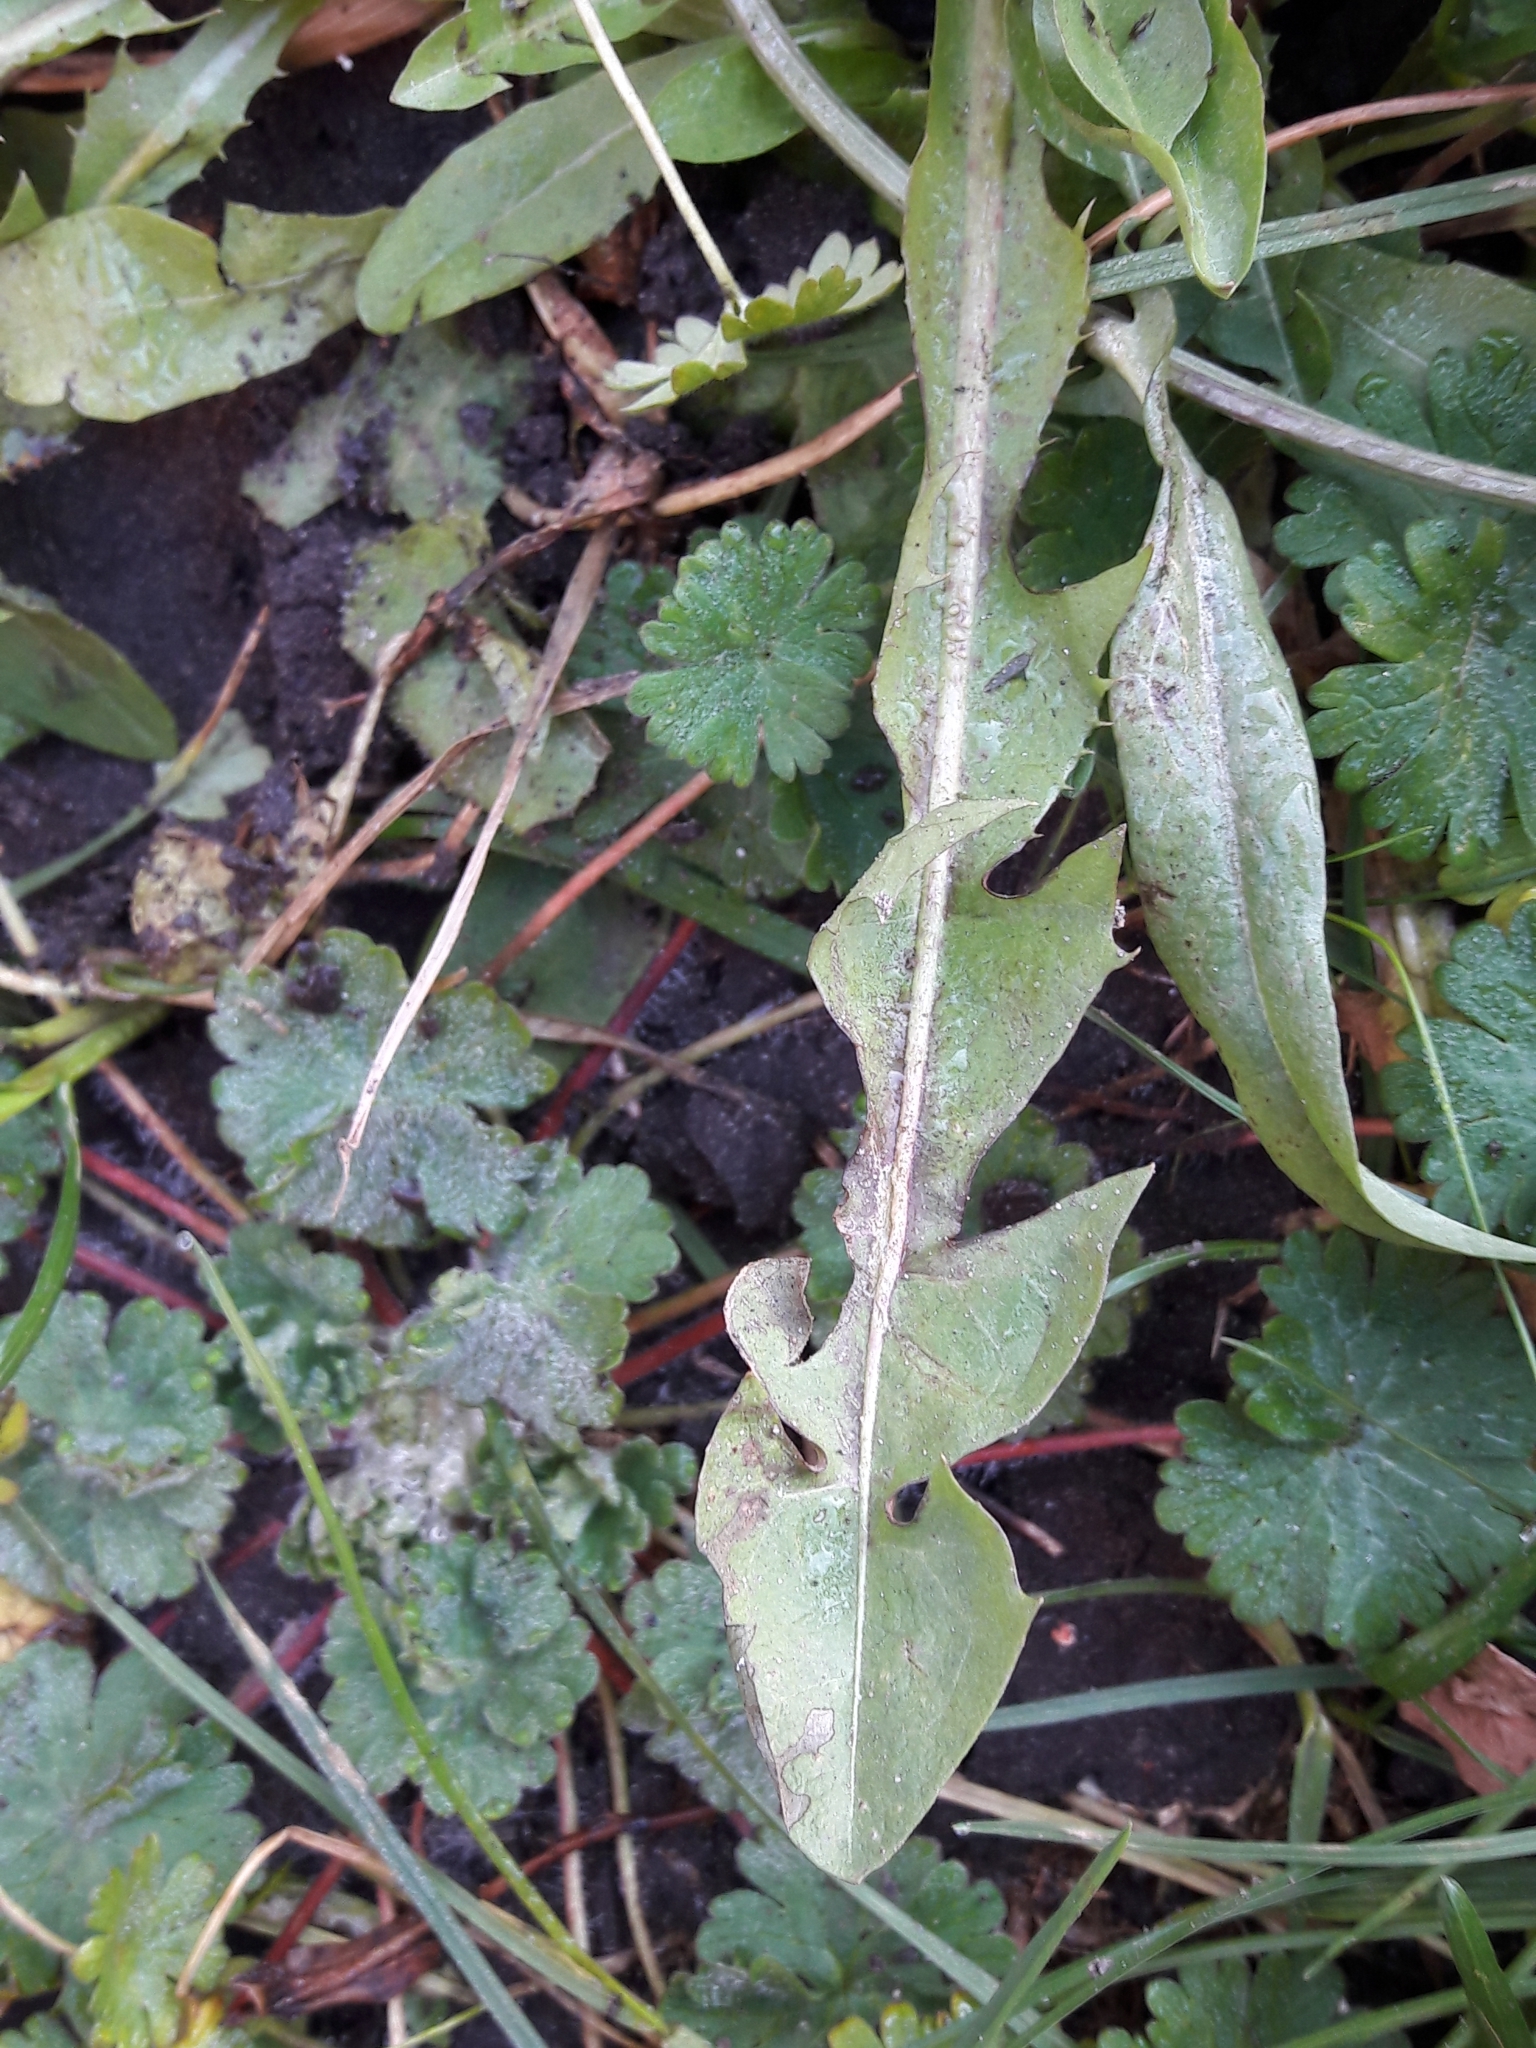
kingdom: Plantae
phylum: Tracheophyta
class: Magnoliopsida
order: Asterales
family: Asteraceae
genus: Taraxacum
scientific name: Taraxacum officinale
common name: Common dandelion
